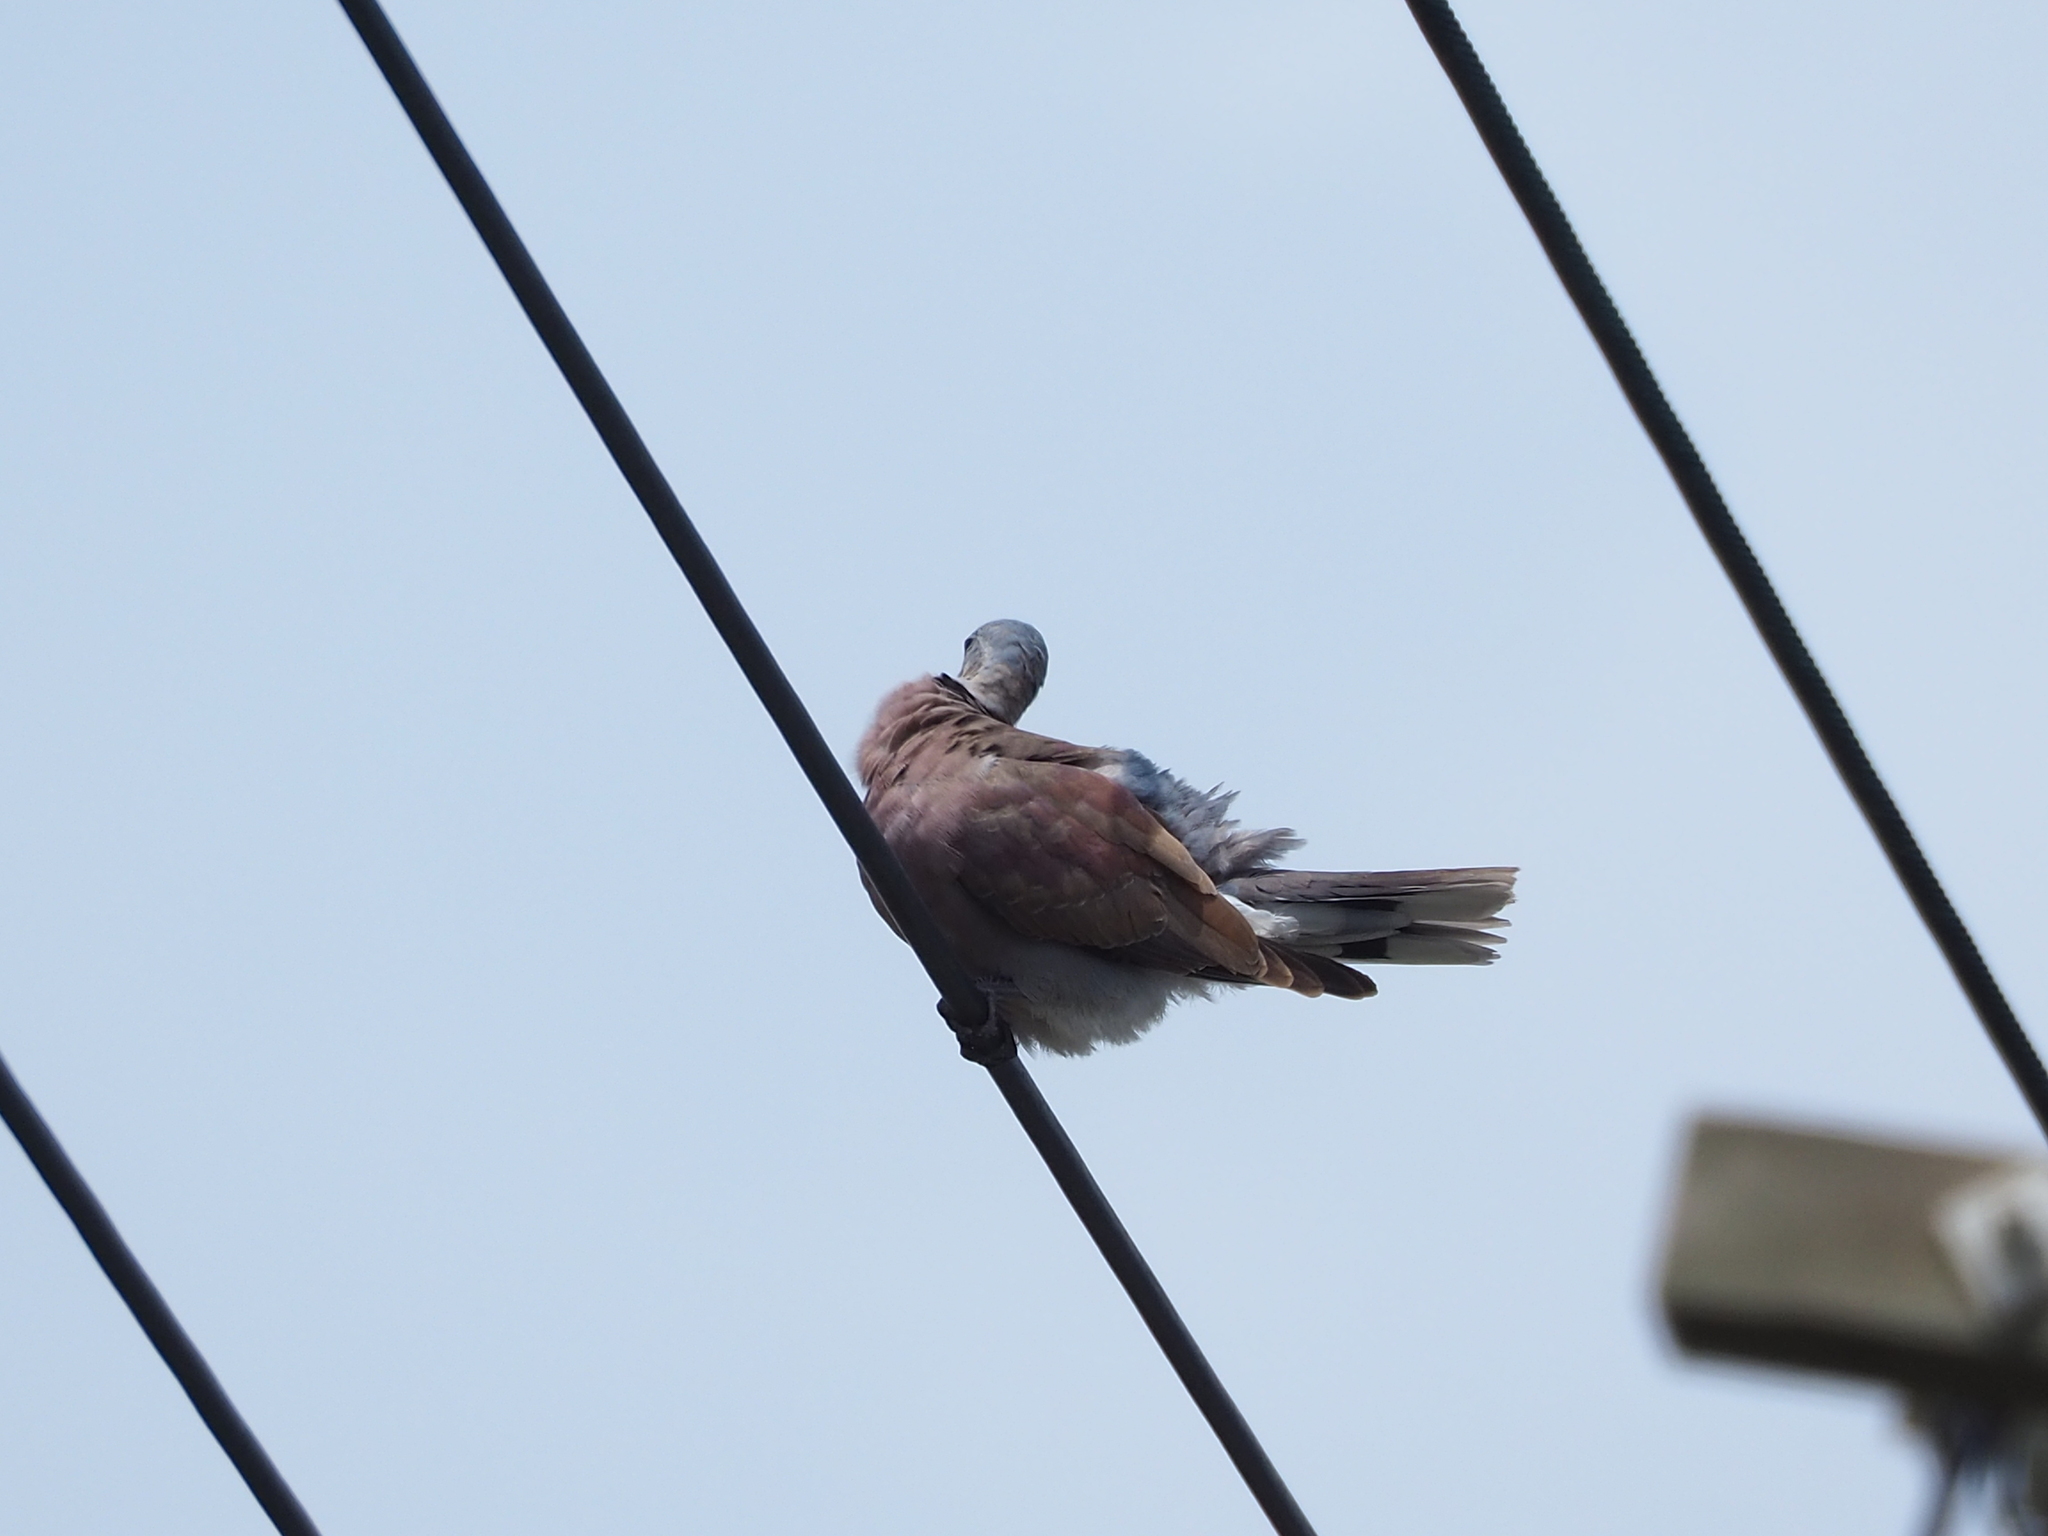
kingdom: Animalia
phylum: Chordata
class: Aves
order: Columbiformes
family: Columbidae
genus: Streptopelia
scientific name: Streptopelia tranquebarica
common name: Red turtle dove
